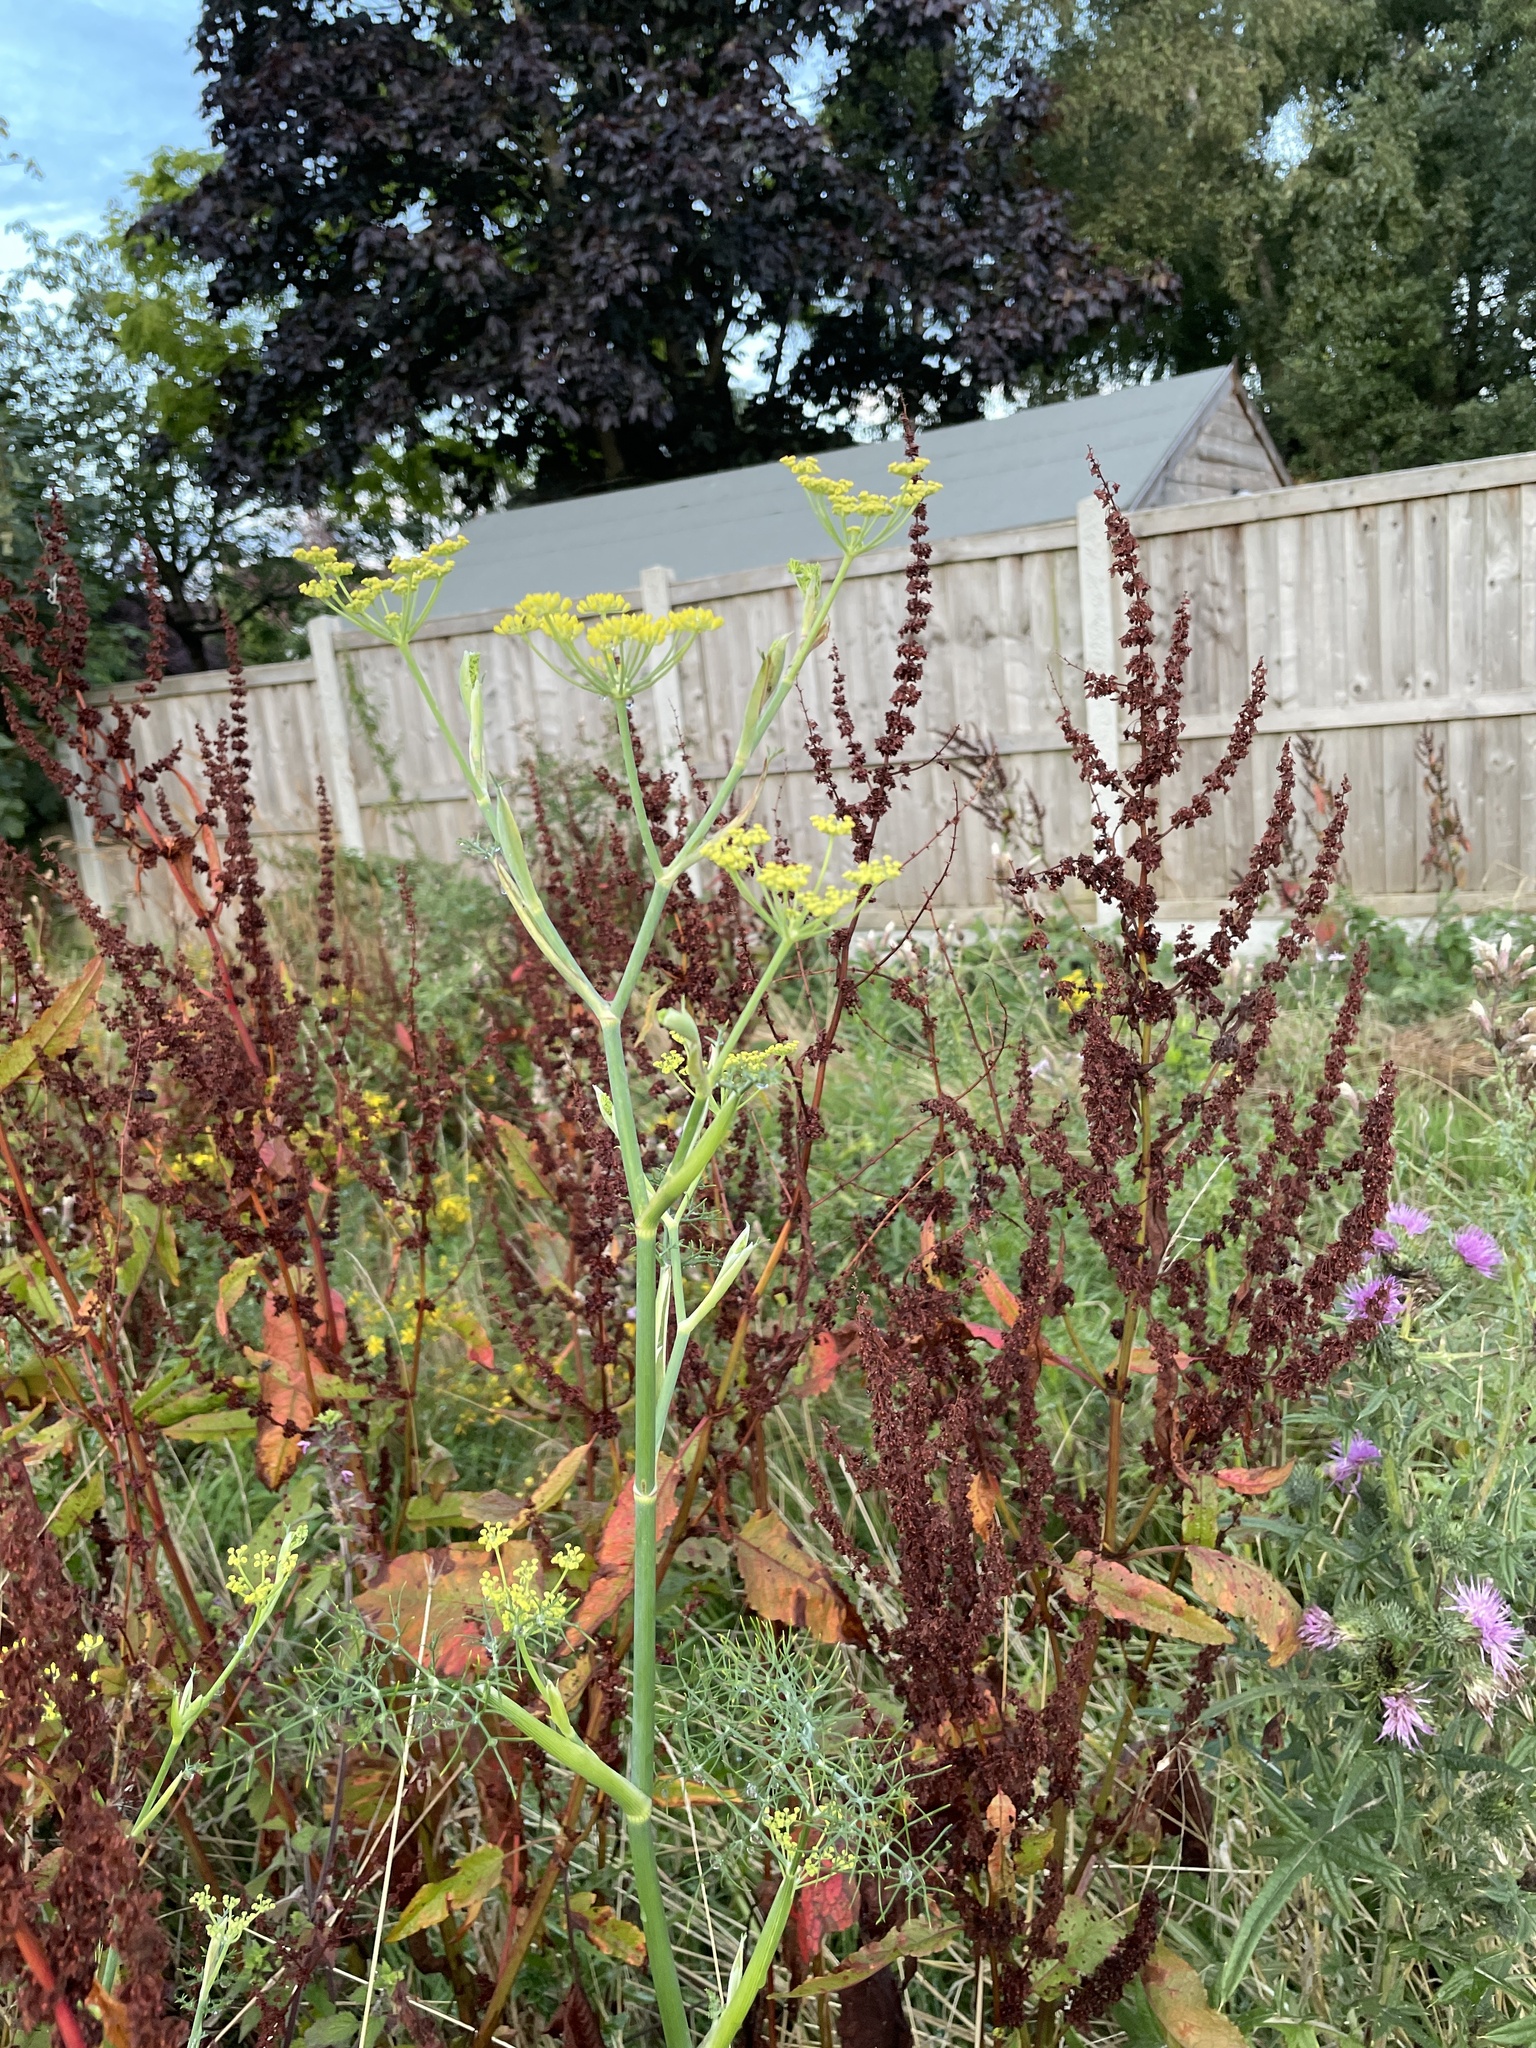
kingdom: Plantae
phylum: Tracheophyta
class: Magnoliopsida
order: Apiales
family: Apiaceae
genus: Foeniculum
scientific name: Foeniculum vulgare
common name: Fennel
